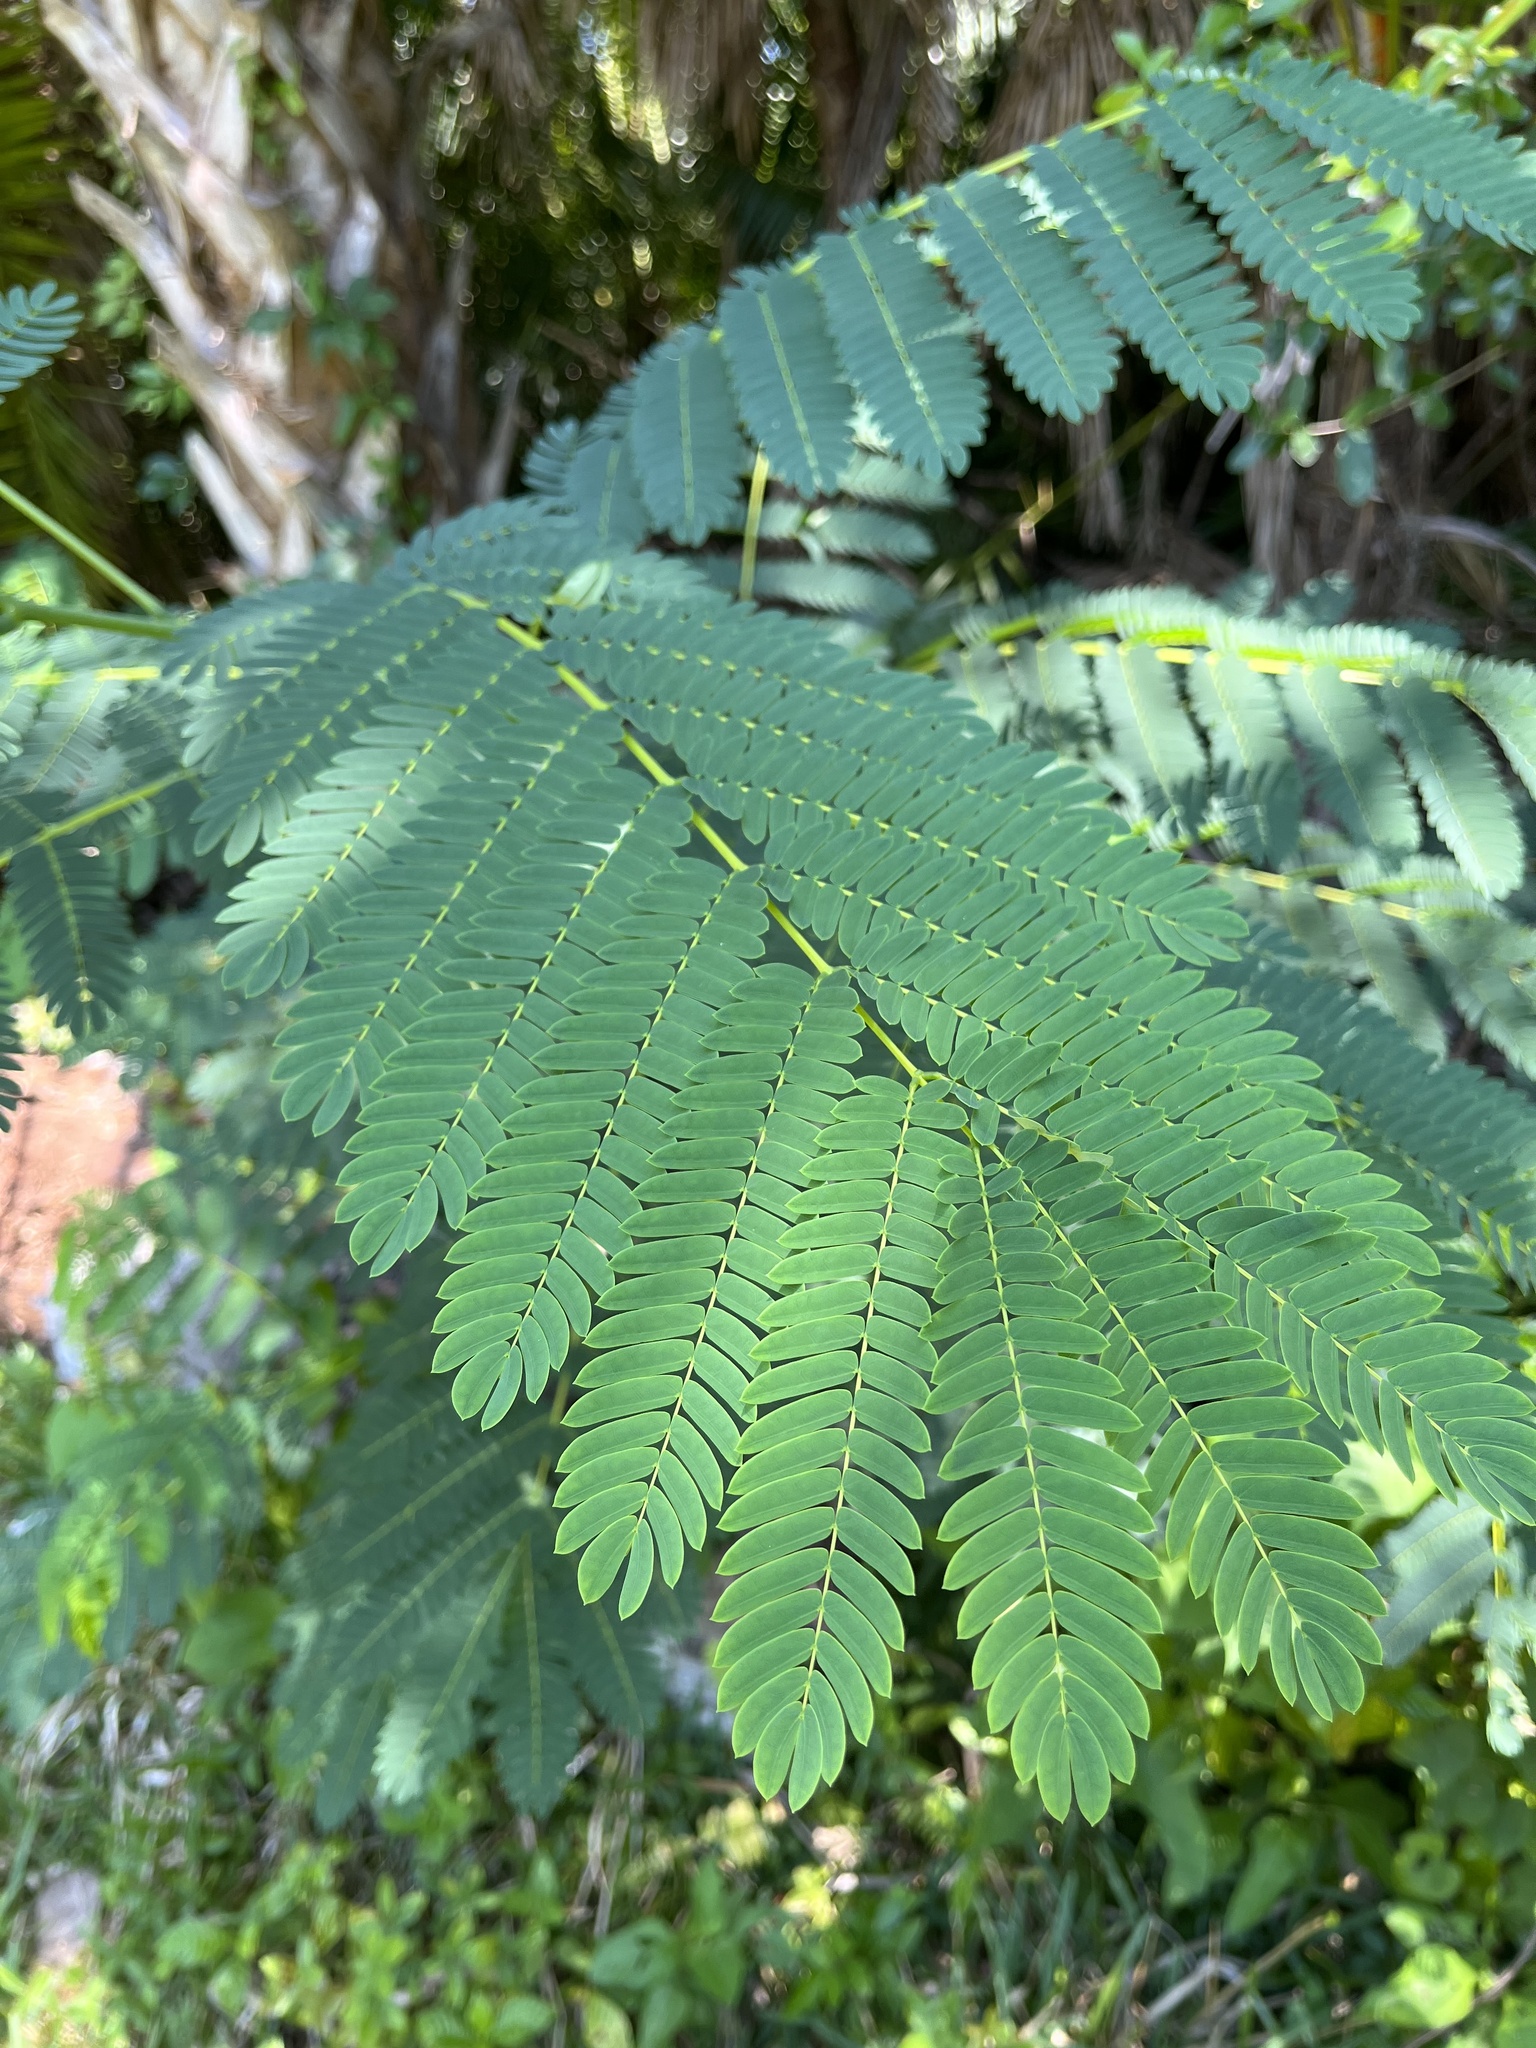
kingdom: Plantae
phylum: Tracheophyta
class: Magnoliopsida
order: Fabales
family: Fabaceae
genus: Albizia
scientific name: Albizia julibrissin
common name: Silktree
